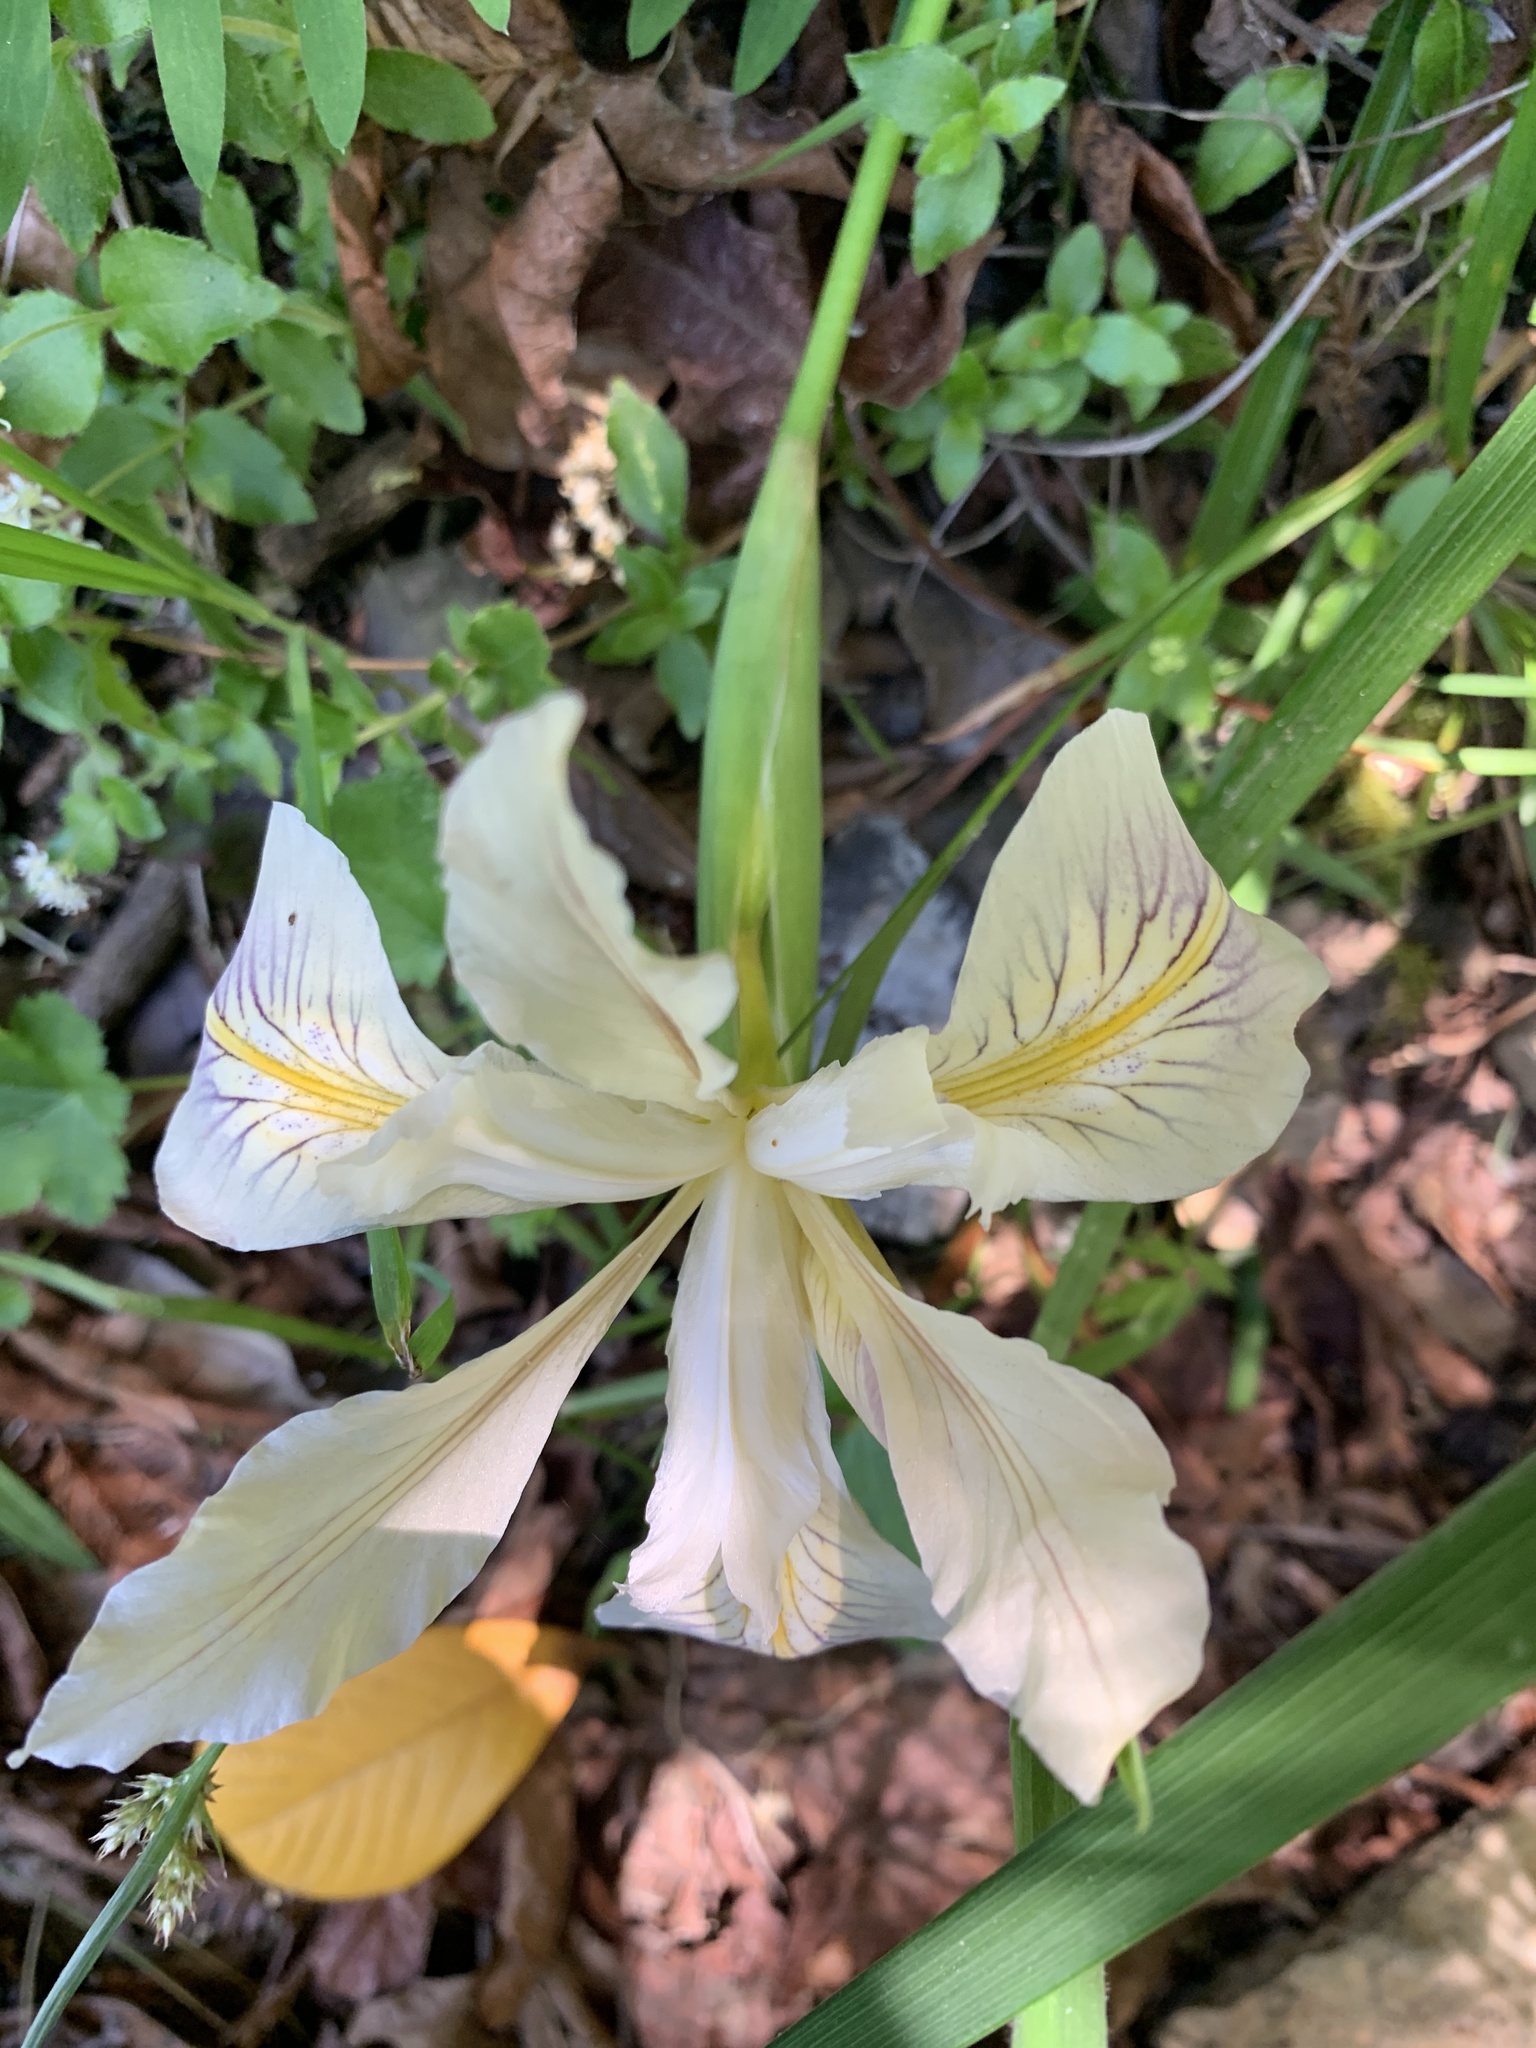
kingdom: Plantae
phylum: Tracheophyta
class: Liliopsida
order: Asparagales
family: Iridaceae
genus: Iris
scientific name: Iris douglasiana
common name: Marin iris
